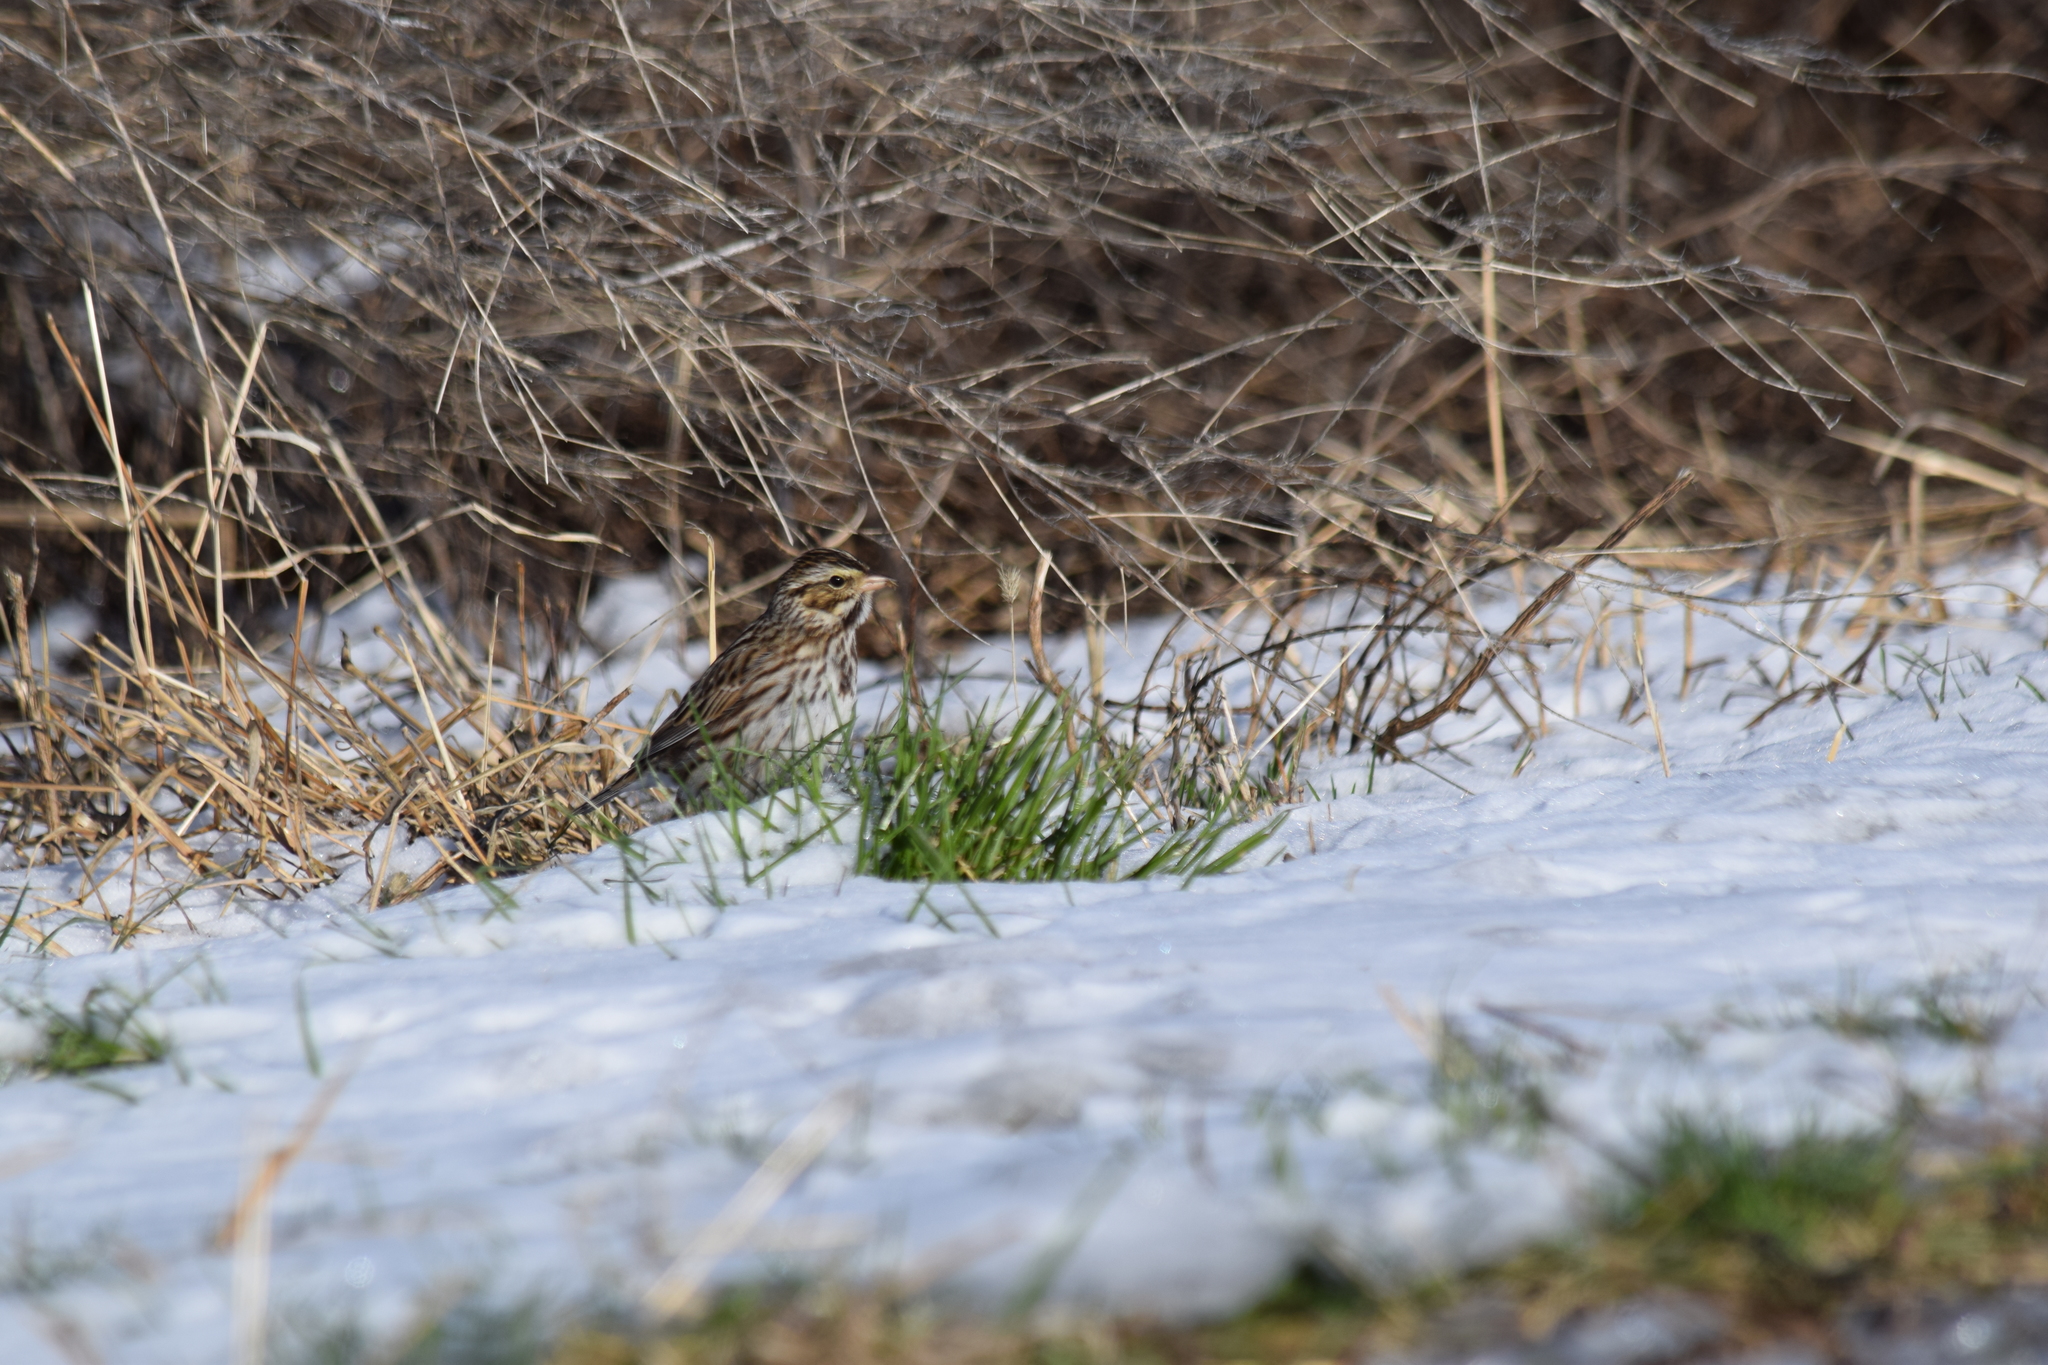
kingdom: Animalia
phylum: Chordata
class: Aves
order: Passeriformes
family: Passerellidae
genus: Passerculus
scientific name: Passerculus sandwichensis
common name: Savannah sparrow
